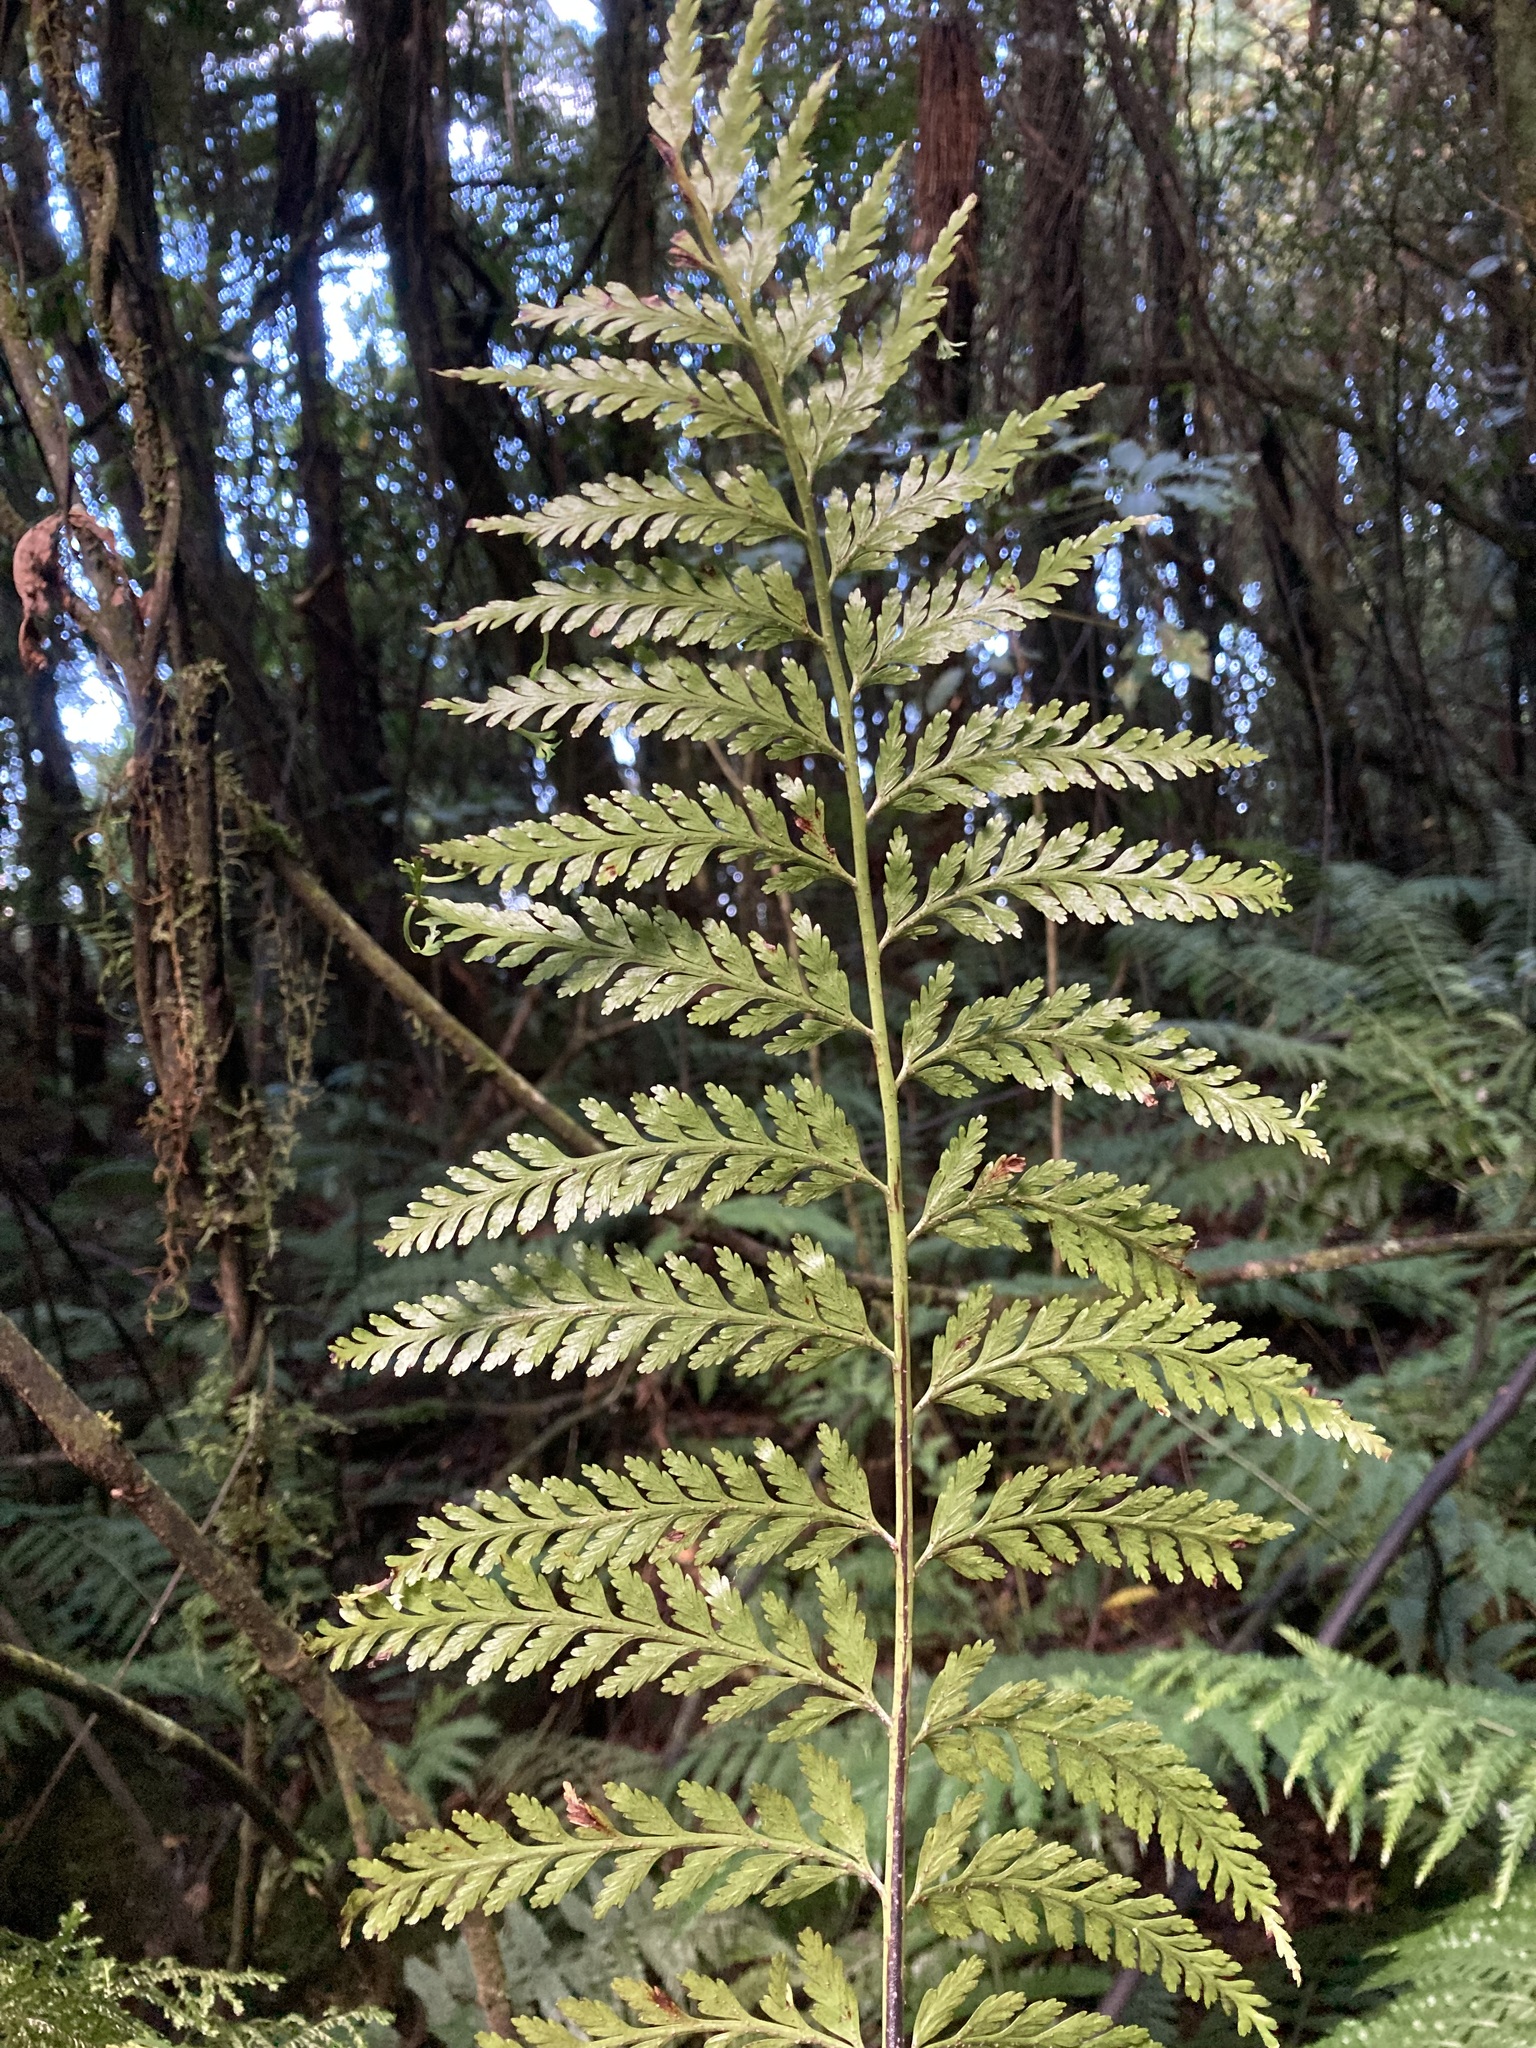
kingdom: Plantae
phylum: Tracheophyta
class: Polypodiopsida
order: Polypodiales
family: Aspleniaceae
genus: Asplenium
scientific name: Asplenium
